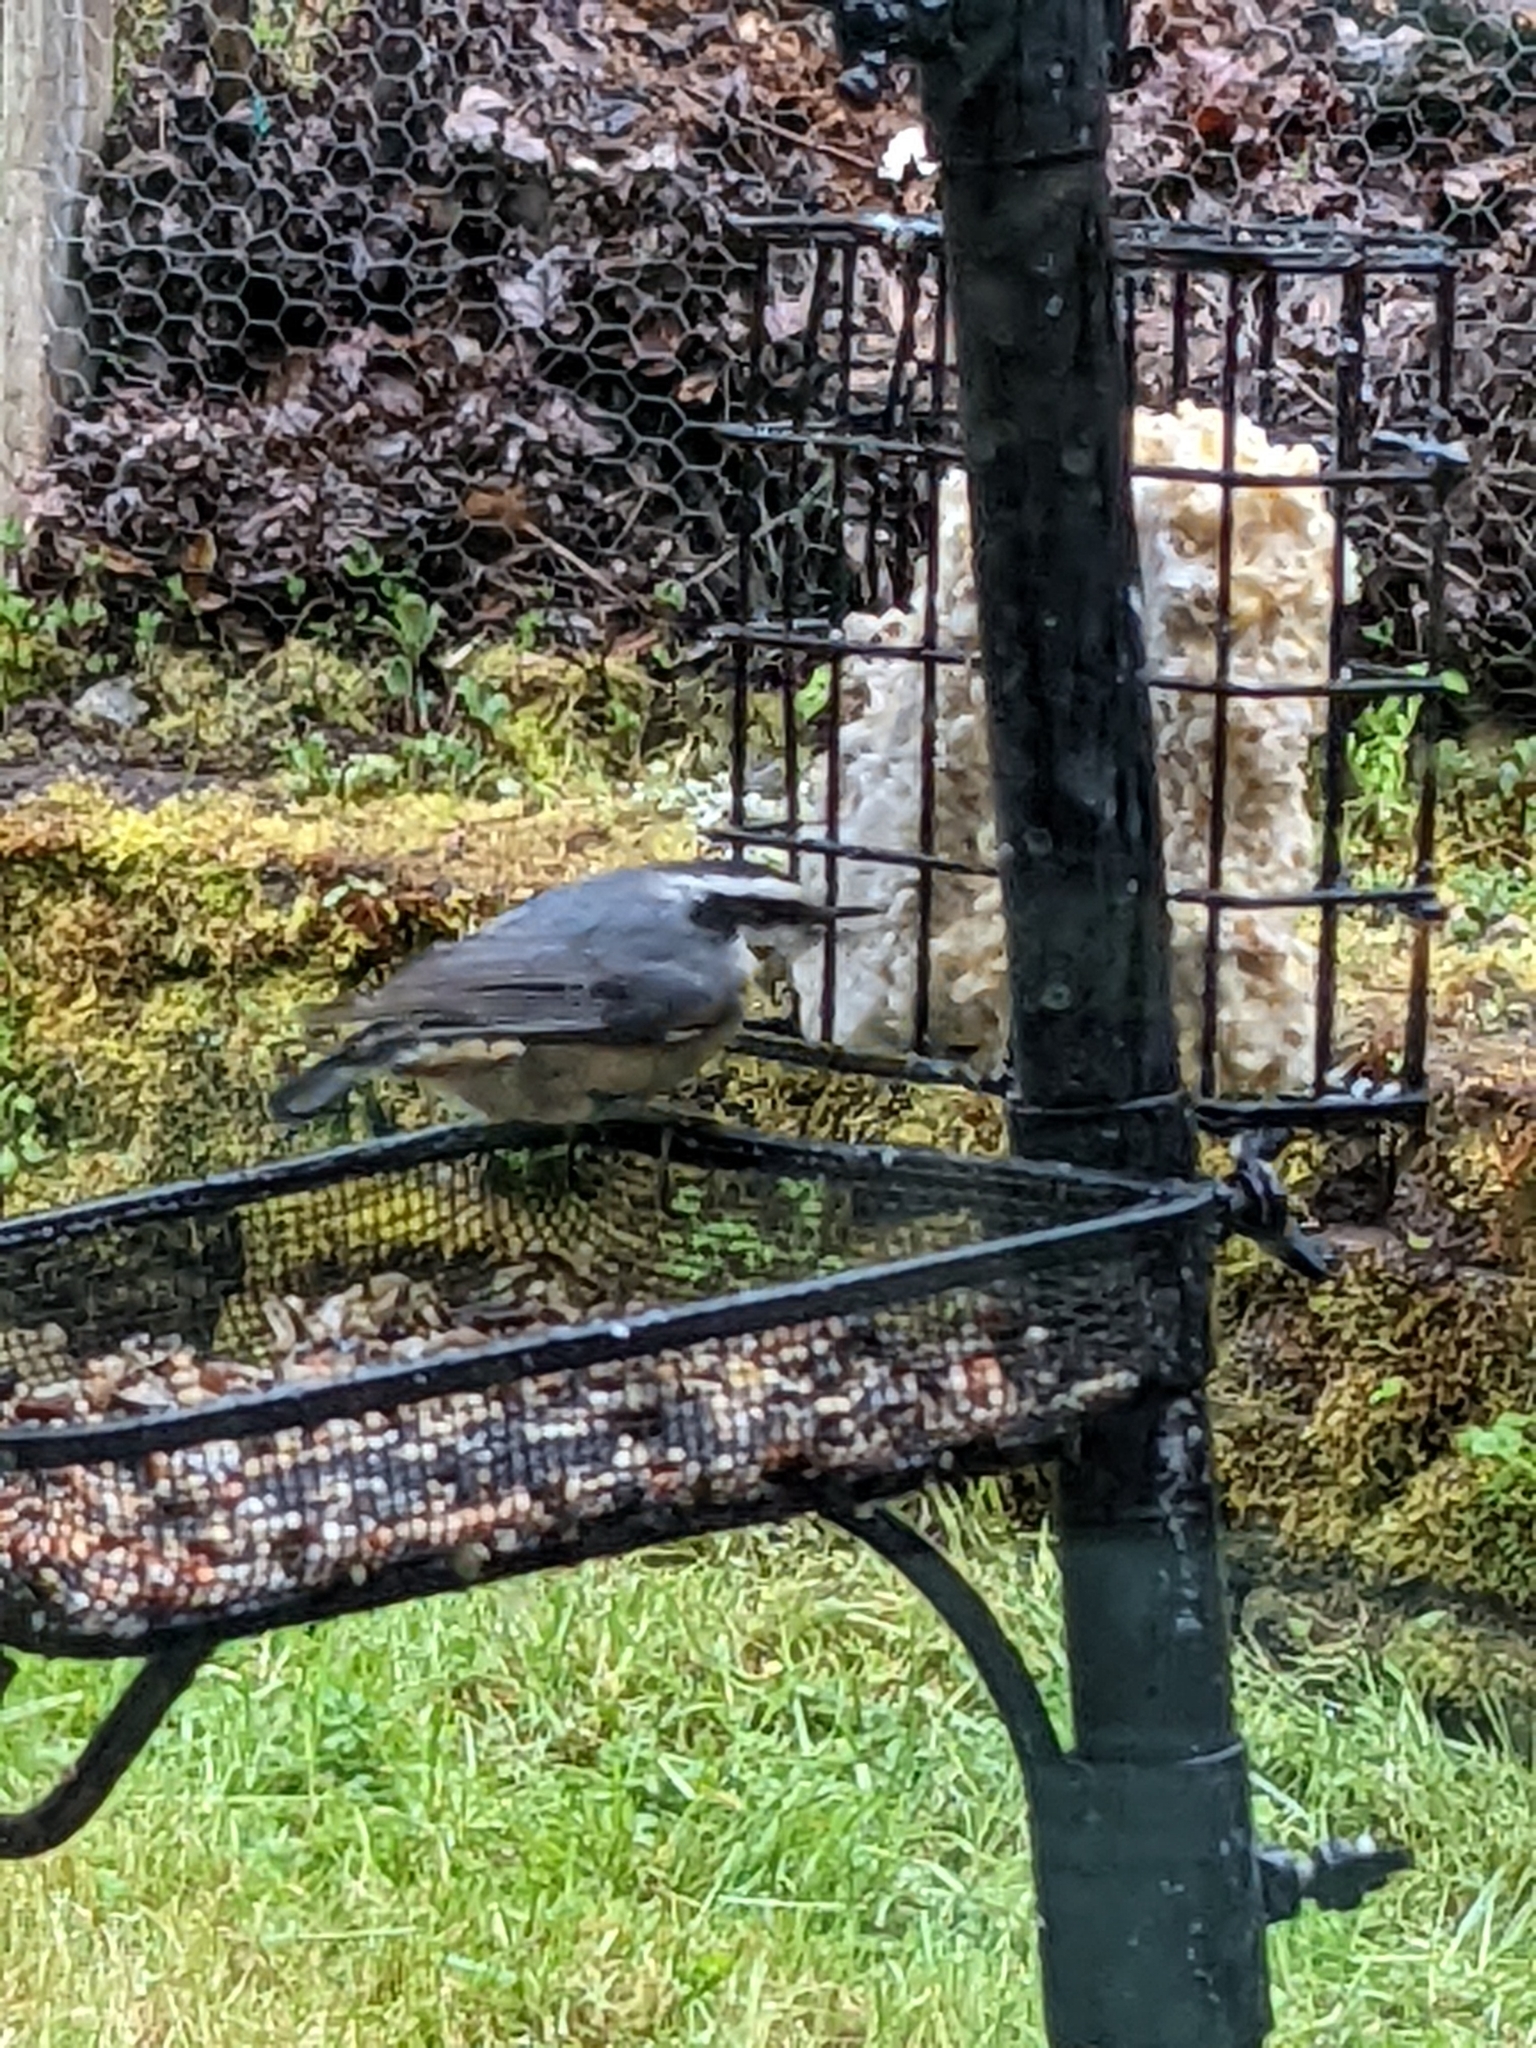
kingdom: Animalia
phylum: Chordata
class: Aves
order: Passeriformes
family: Sittidae
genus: Sitta
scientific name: Sitta canadensis
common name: Red-breasted nuthatch
